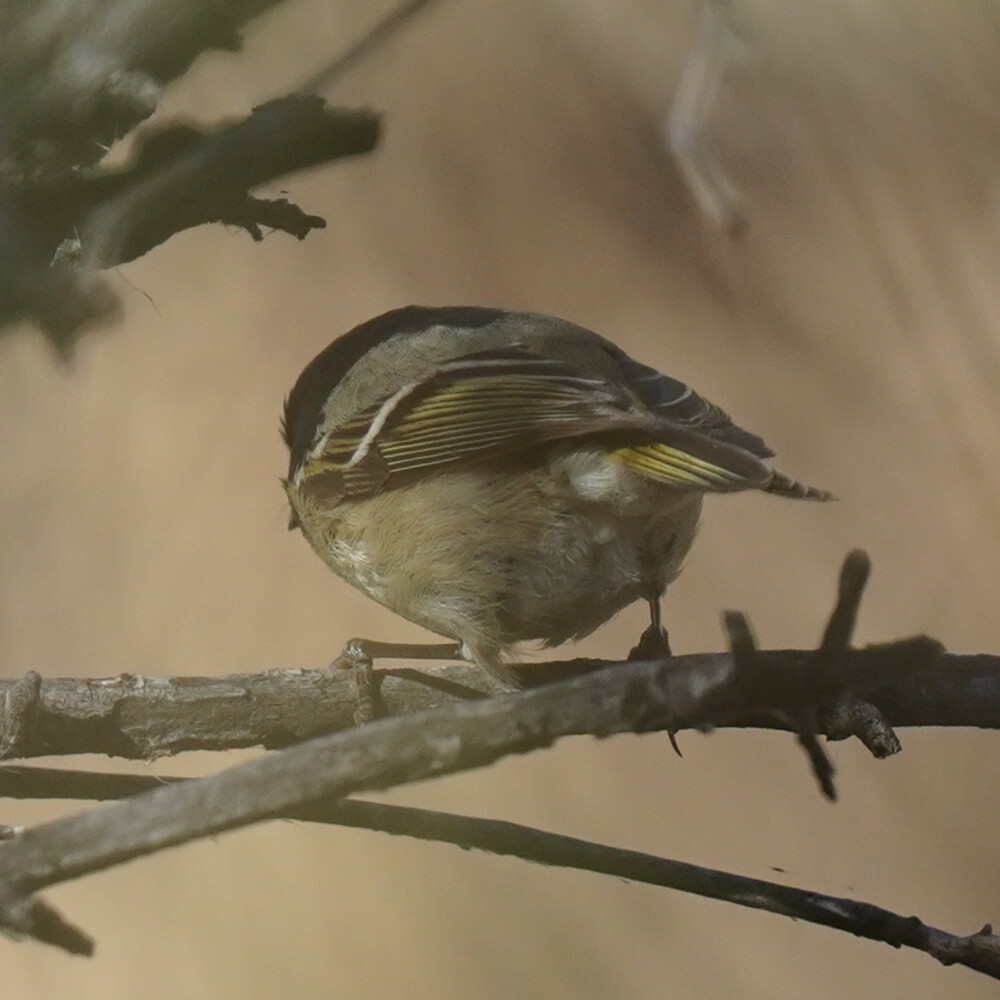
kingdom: Animalia
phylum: Chordata
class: Aves
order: Passeriformes
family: Regulidae
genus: Regulus
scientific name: Regulus calendula
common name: Ruby-crowned kinglet
